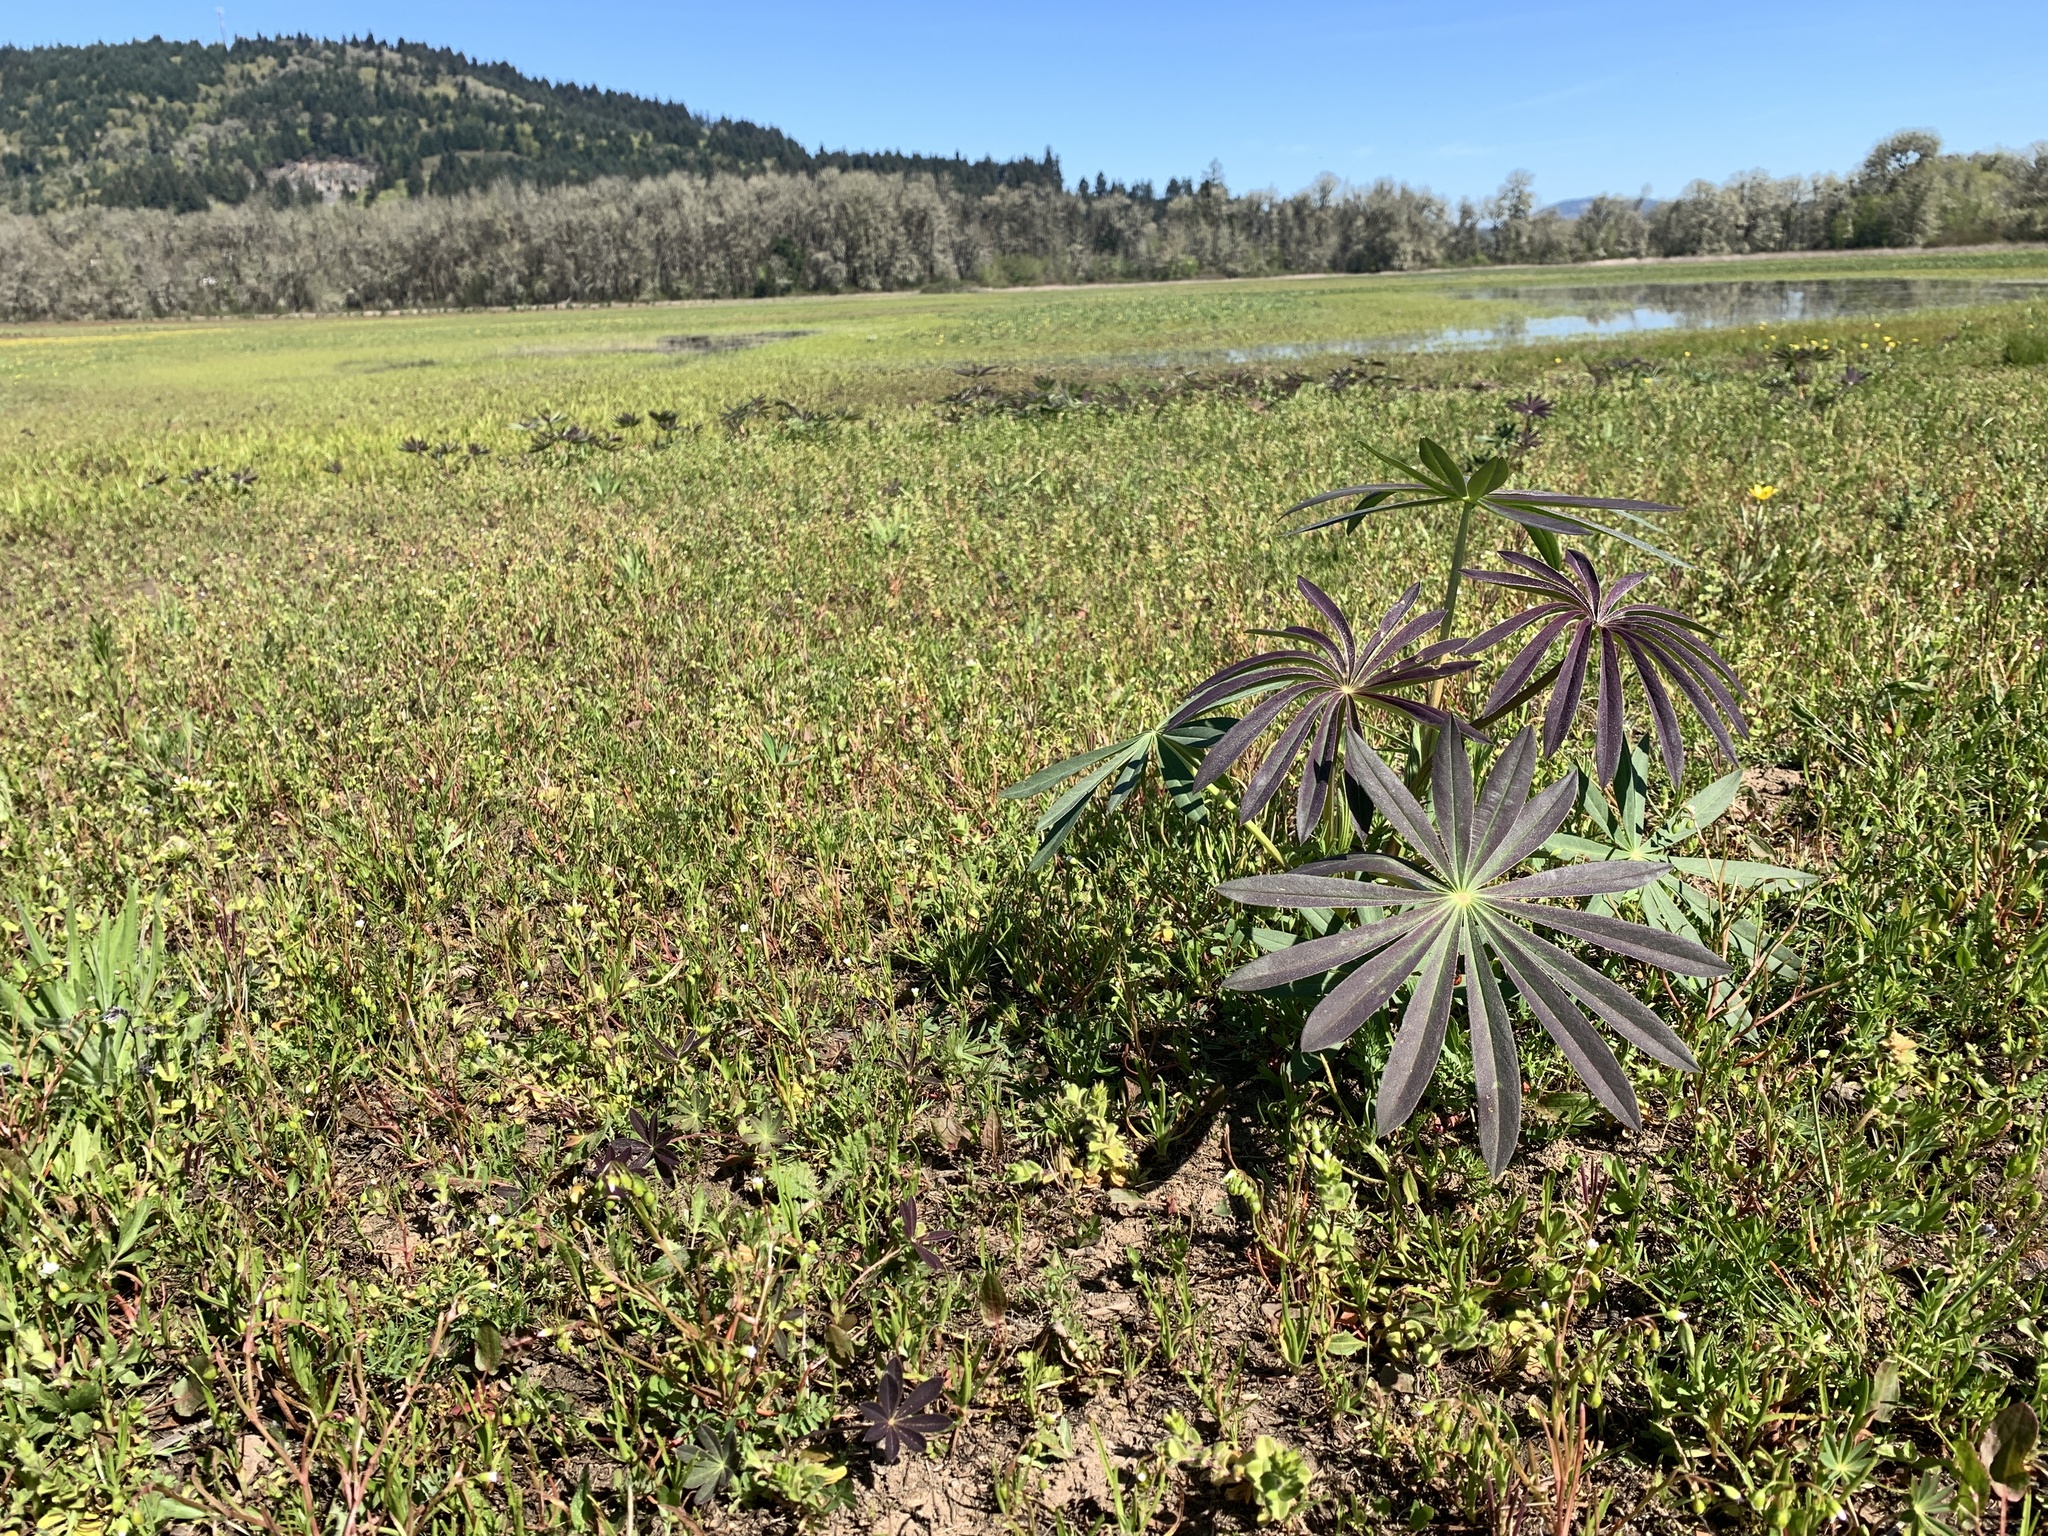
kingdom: Plantae
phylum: Tracheophyta
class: Magnoliopsida
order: Fabales
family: Fabaceae
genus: Lupinus
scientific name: Lupinus polyphyllus
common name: Garden lupin
